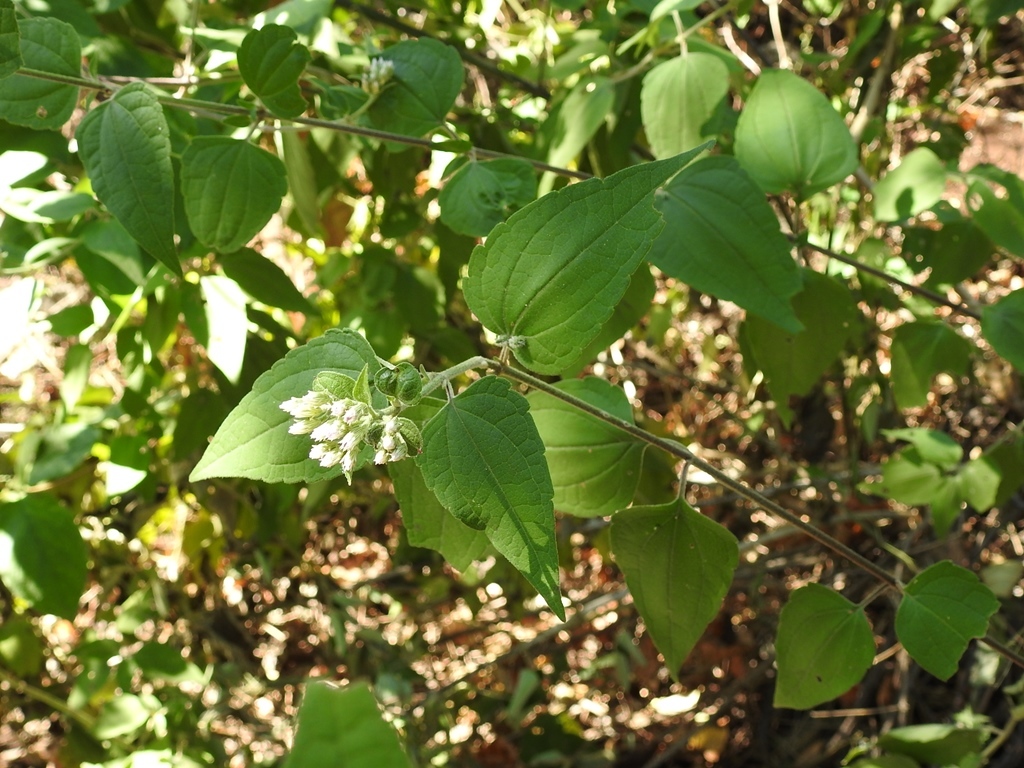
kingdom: Plantae
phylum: Tracheophyta
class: Magnoliopsida
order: Asterales
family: Asteraceae
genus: Chromolaena
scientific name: Chromolaena odorata
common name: Siamweed
